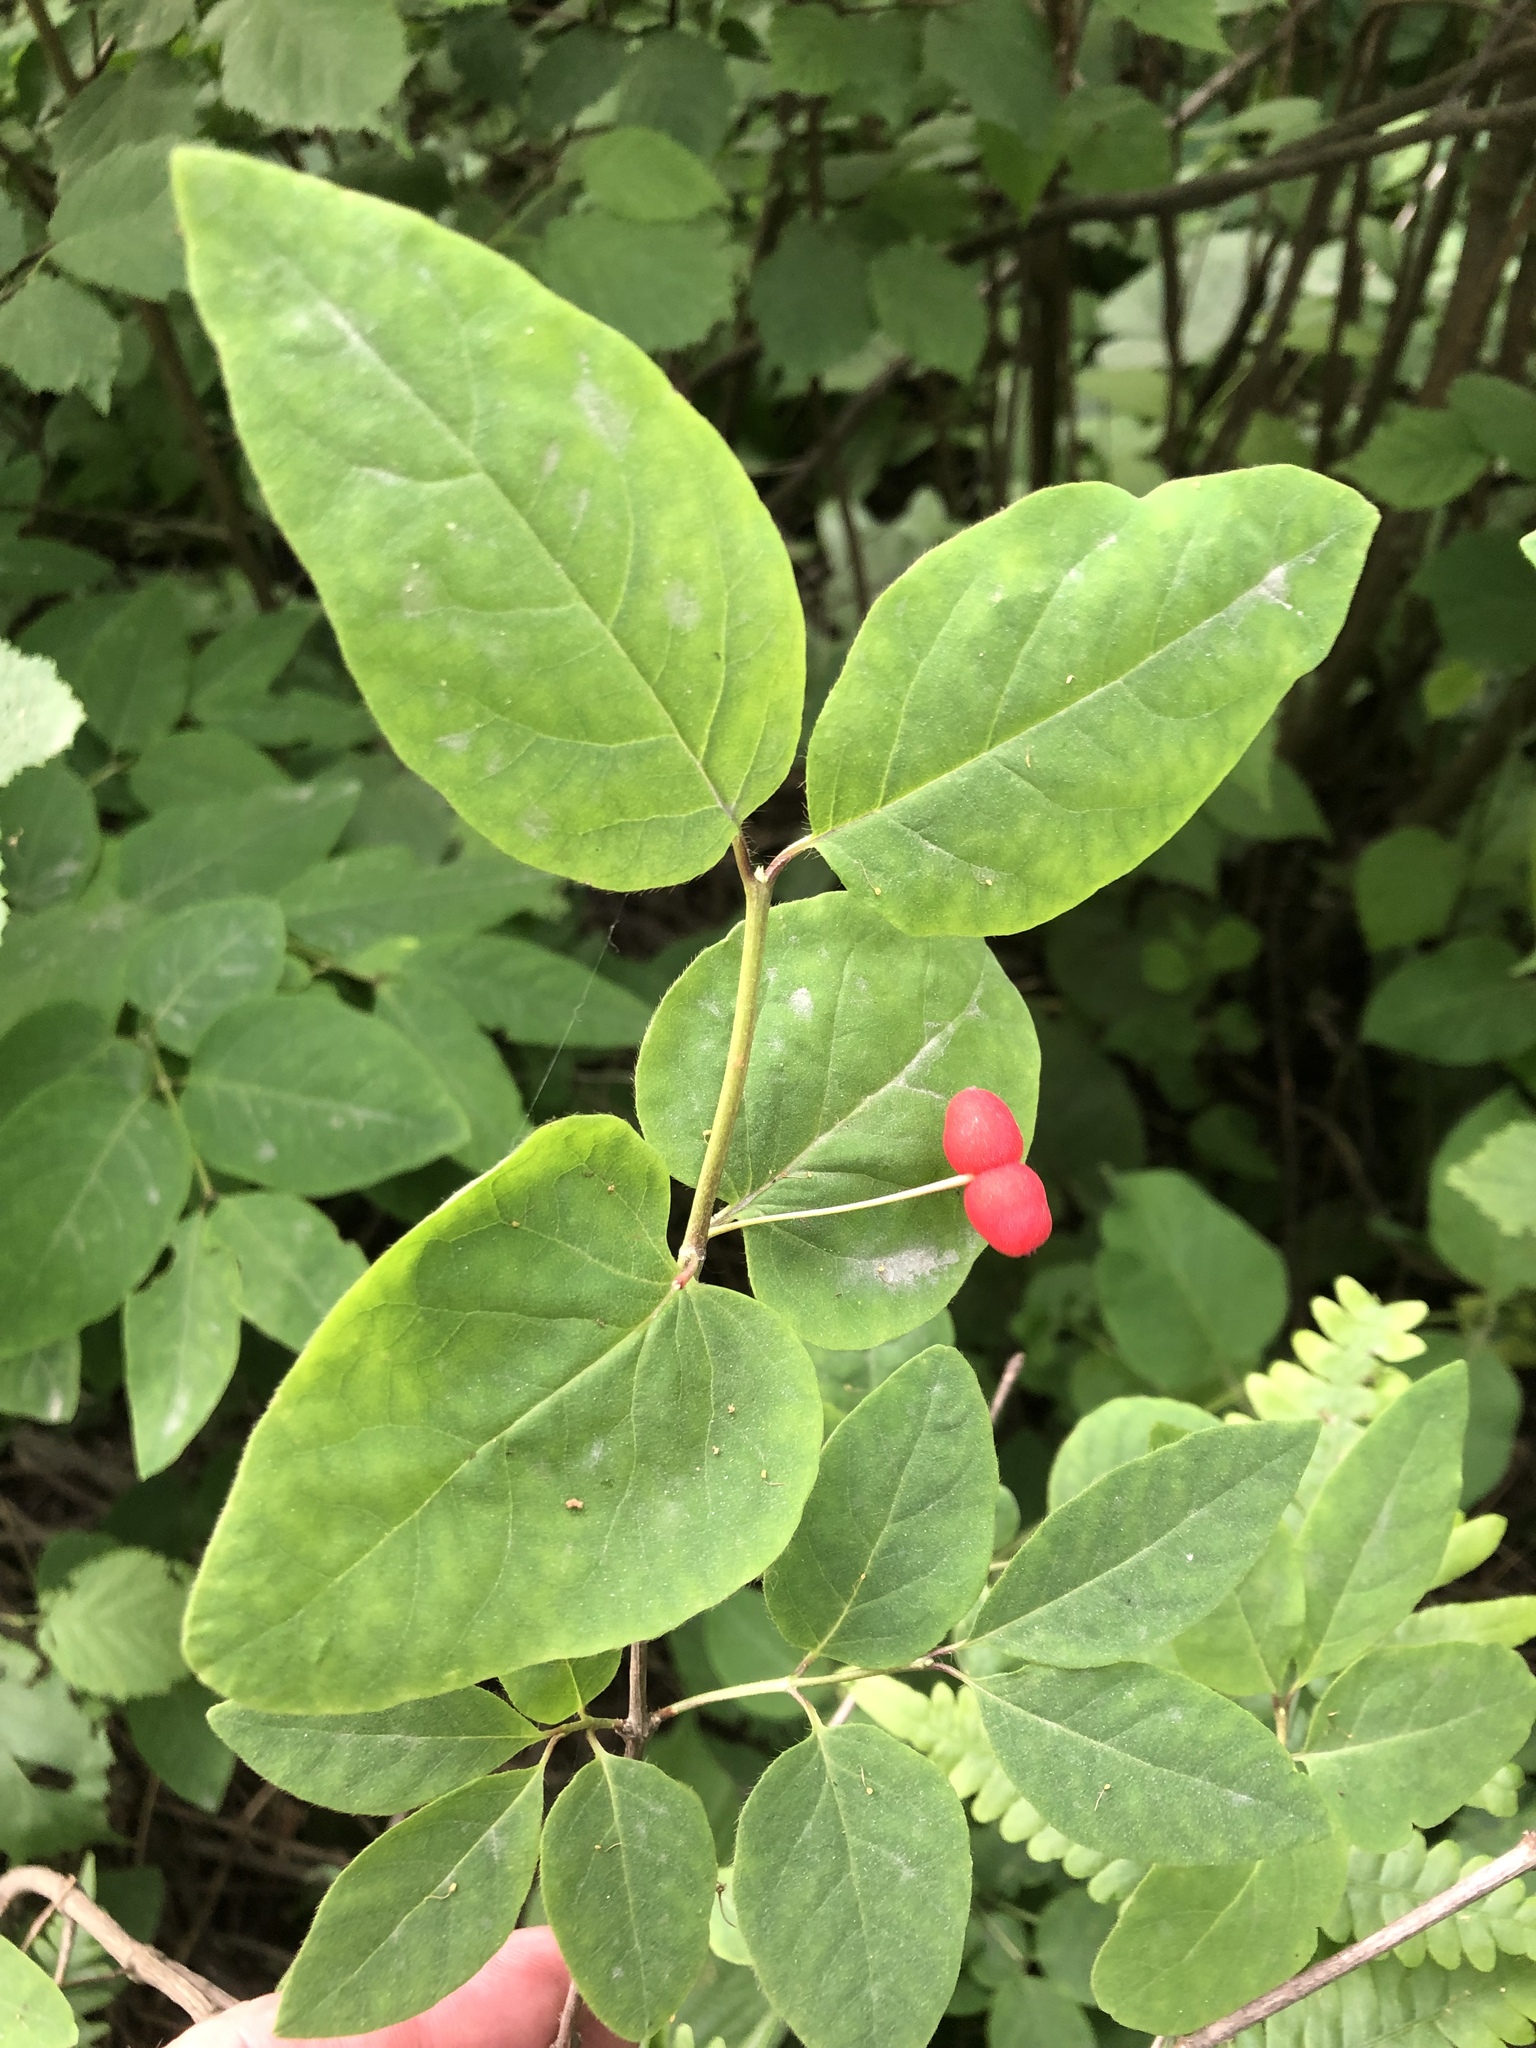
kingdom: Plantae
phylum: Tracheophyta
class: Magnoliopsida
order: Dipsacales
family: Caprifoliaceae
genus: Lonicera
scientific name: Lonicera canadensis
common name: American fly-honeysuckle
